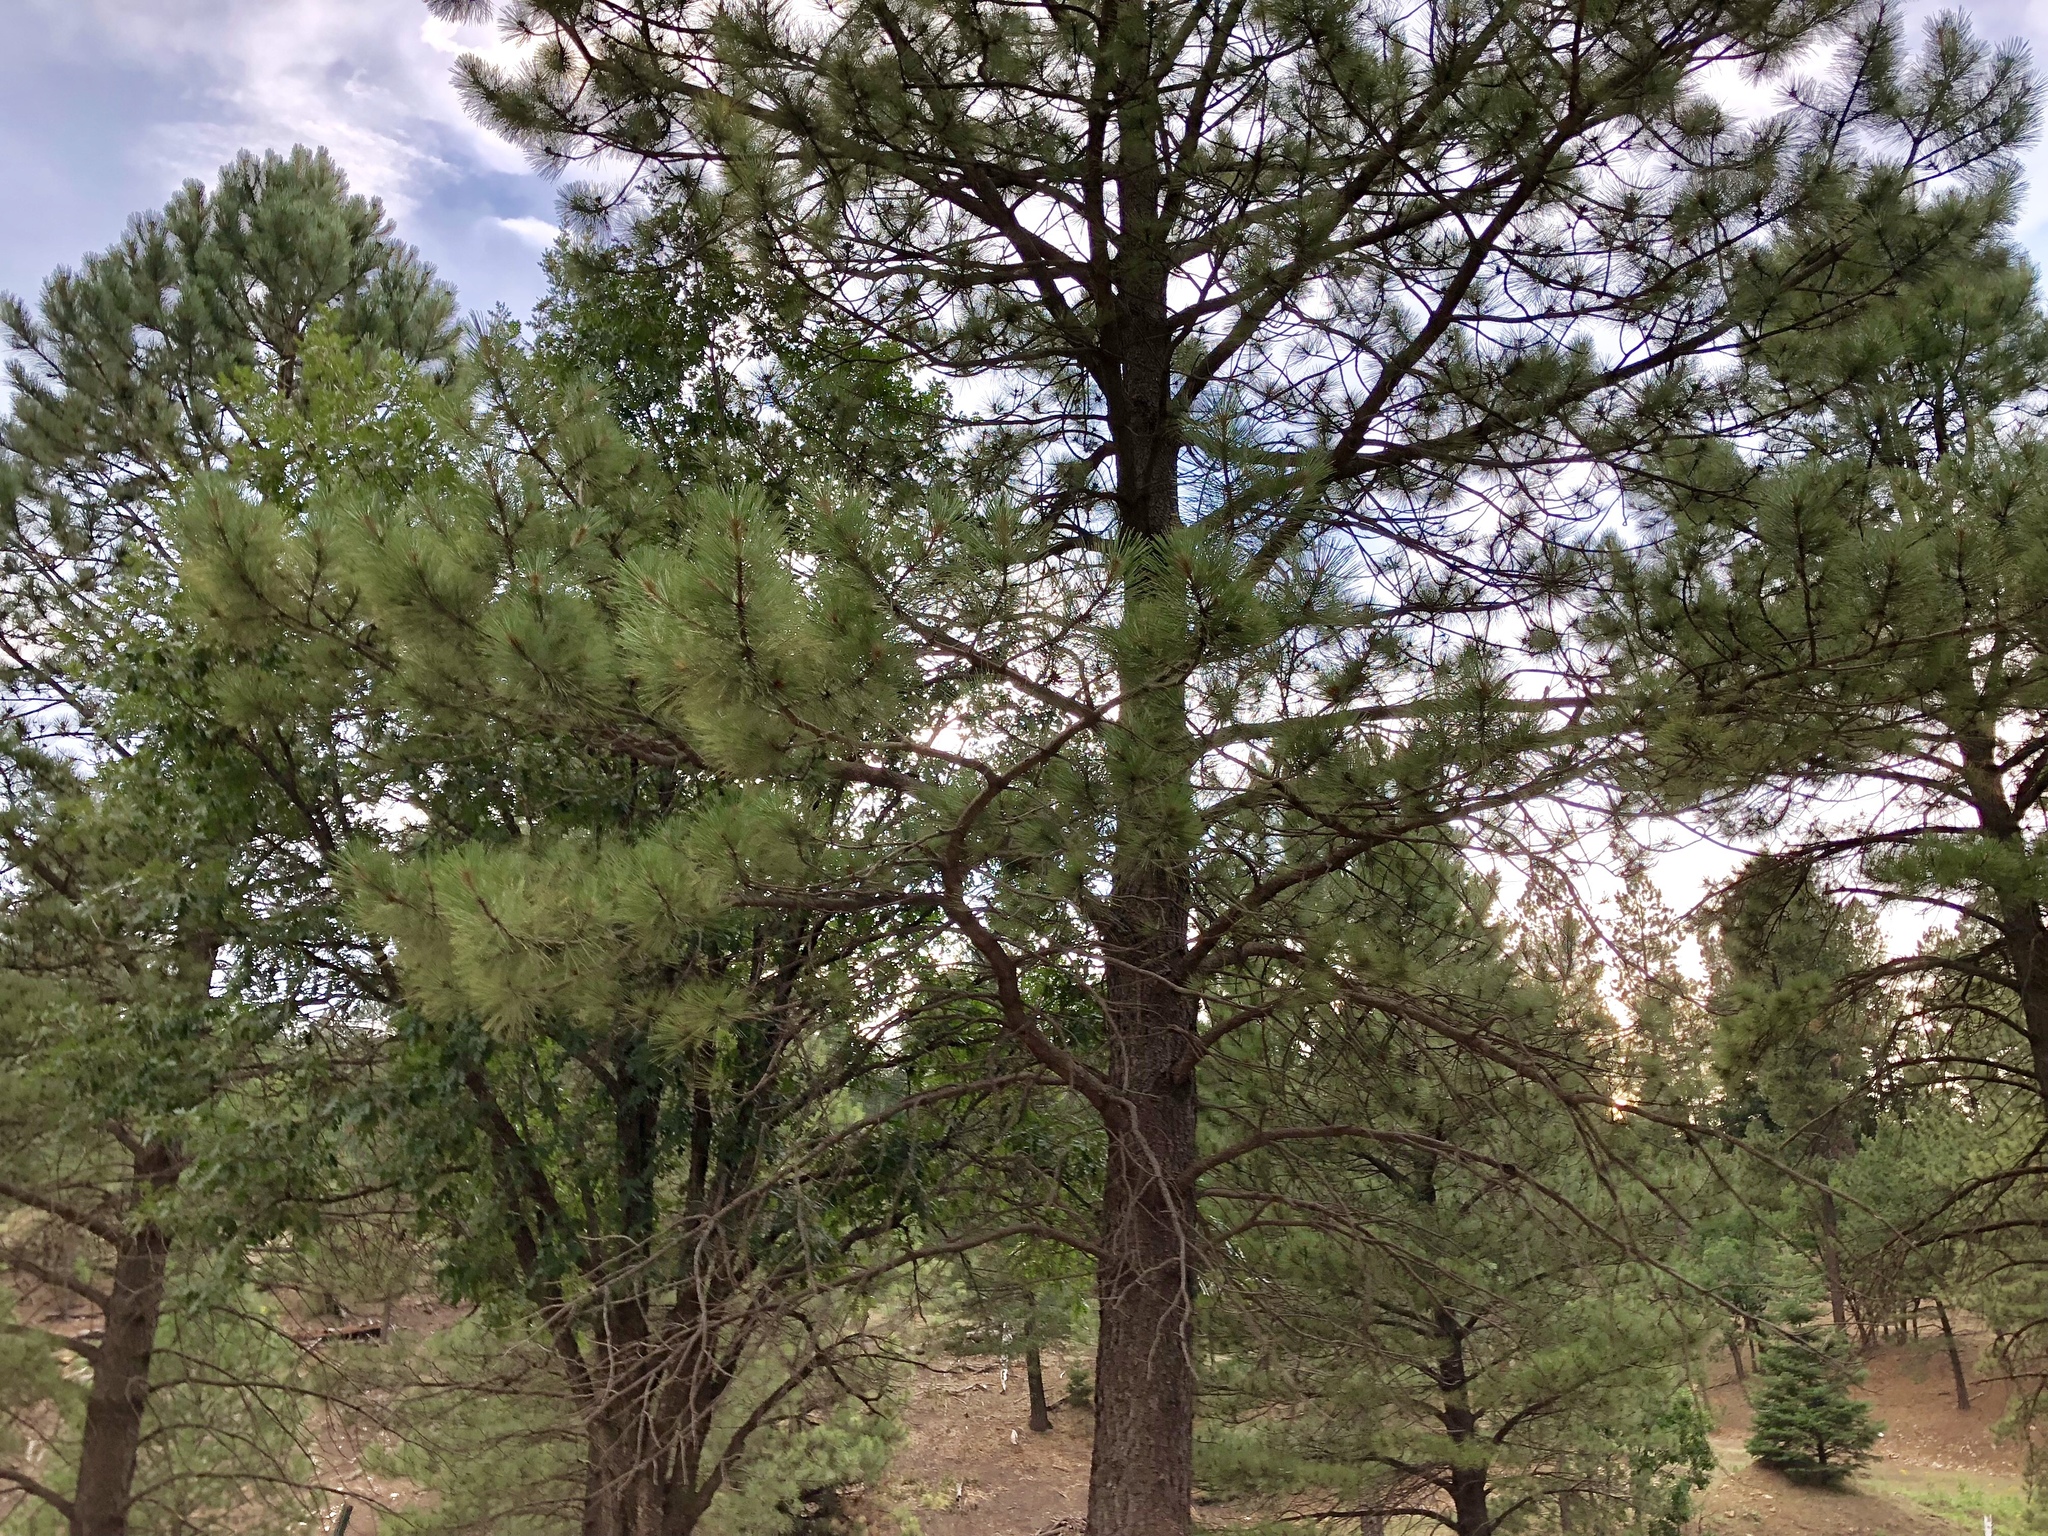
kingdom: Plantae
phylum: Tracheophyta
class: Pinopsida
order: Pinales
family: Pinaceae
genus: Pinus
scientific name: Pinus ponderosa
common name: Western yellow-pine
